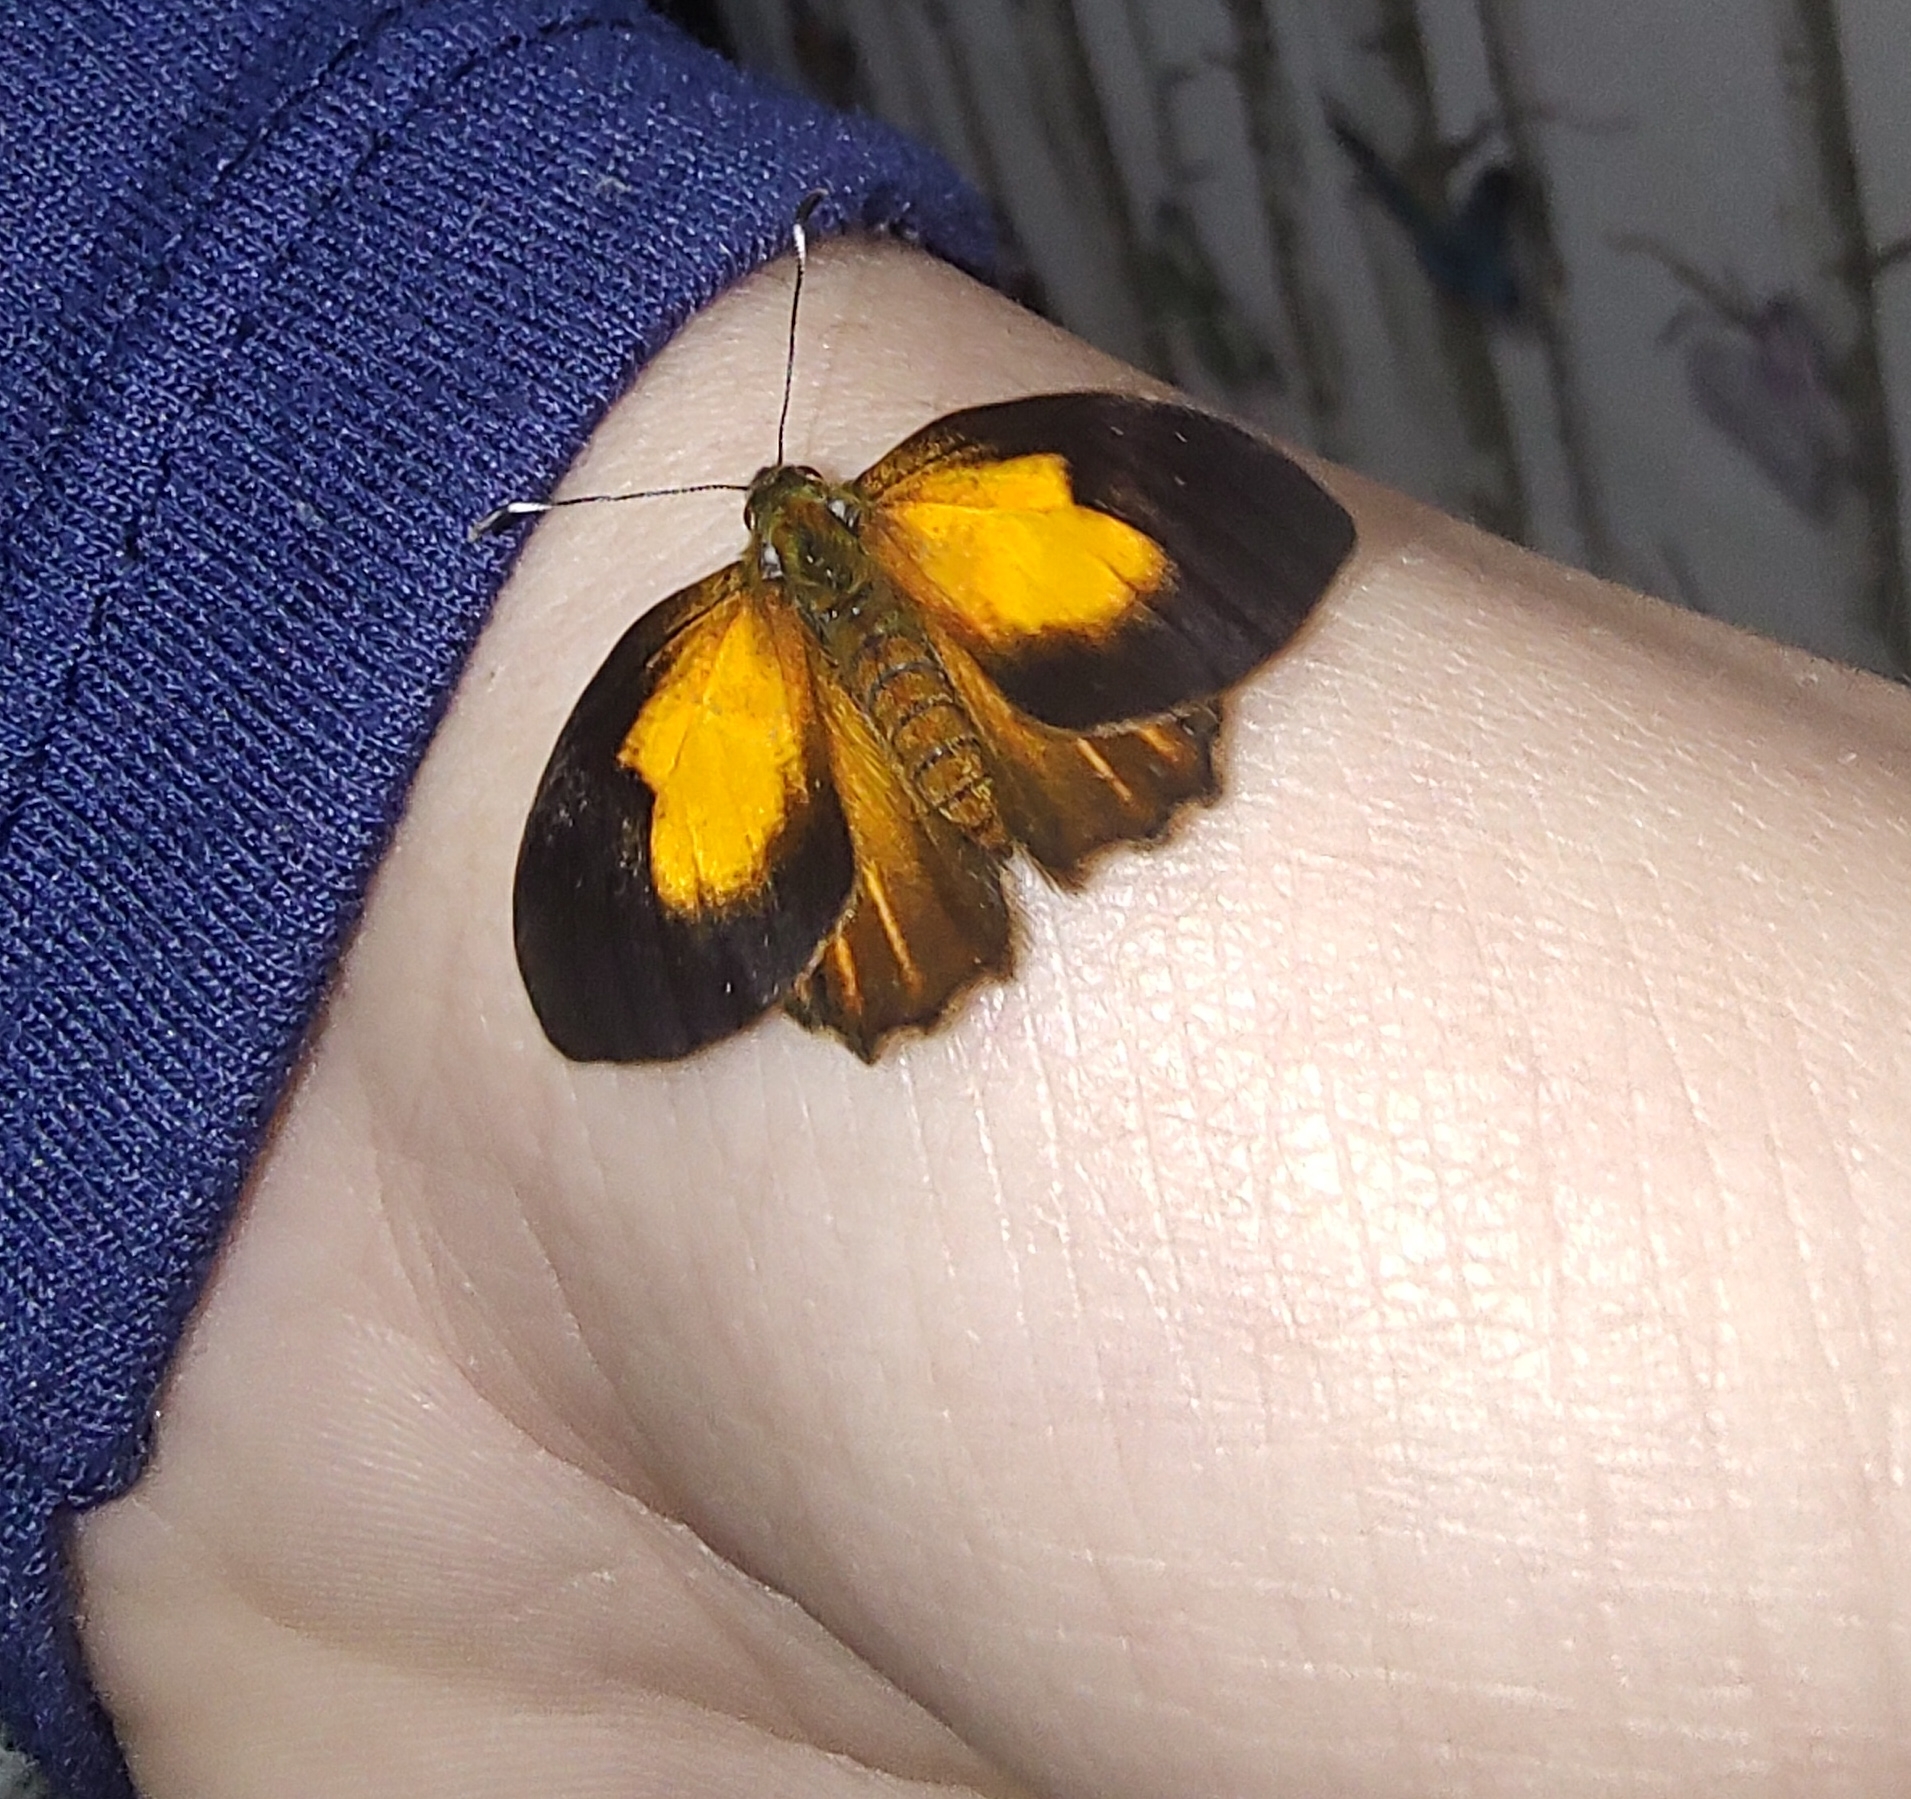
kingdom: Animalia
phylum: Arthropoda
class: Insecta
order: Lepidoptera
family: Lycaenidae
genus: Euselasia
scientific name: Euselasia euploea
